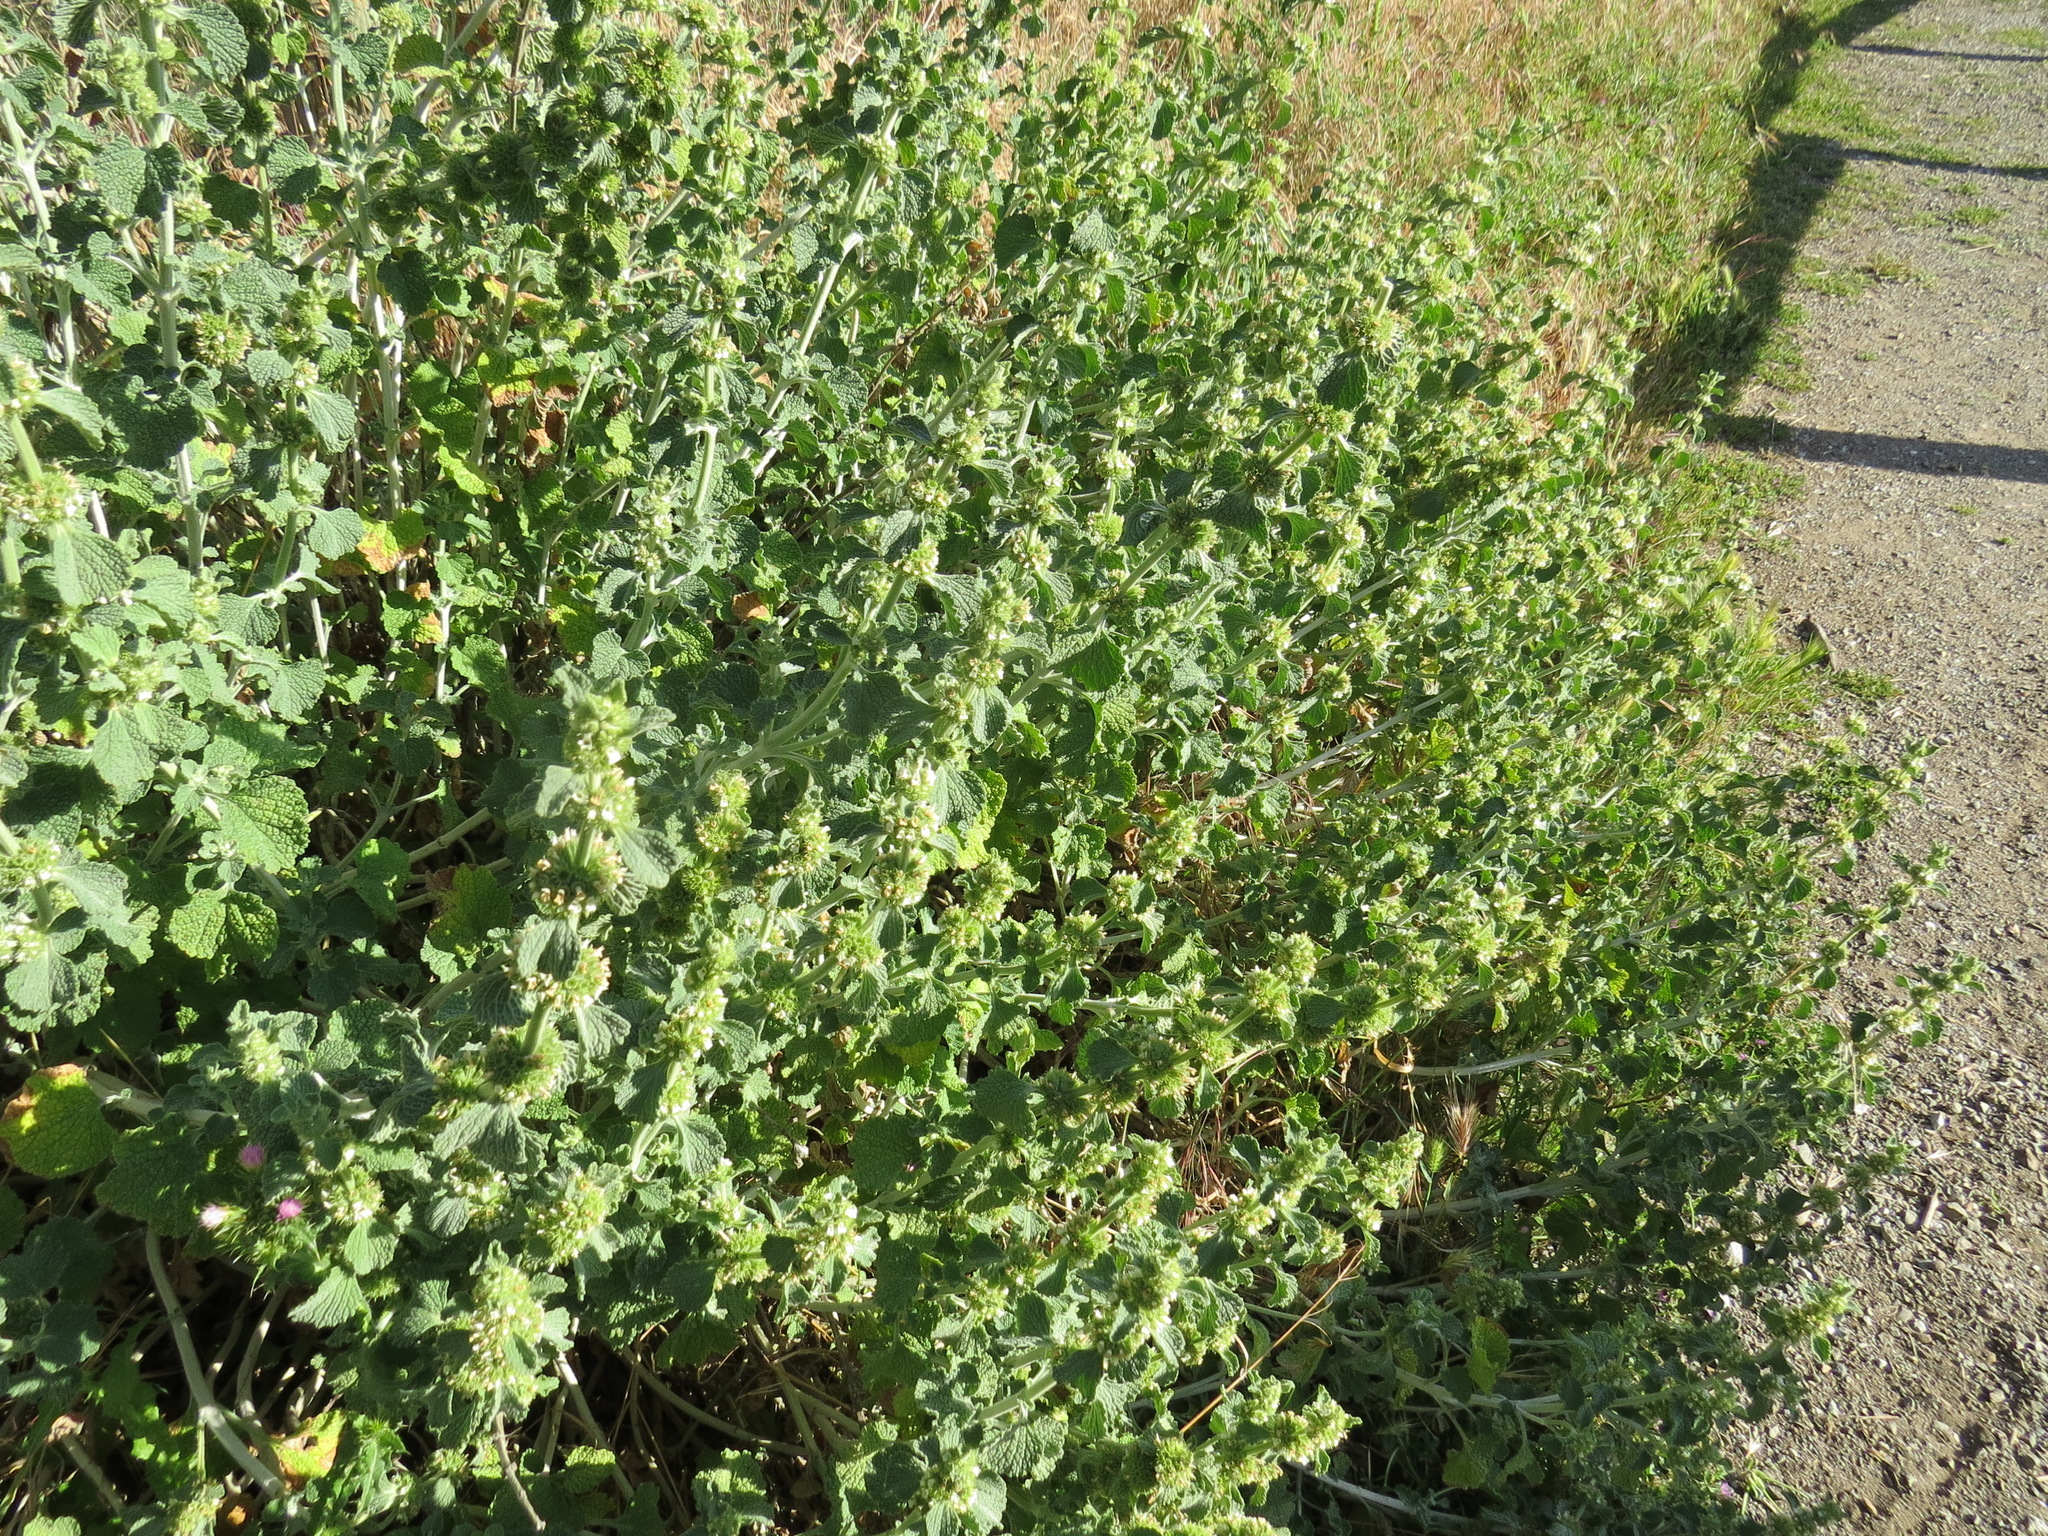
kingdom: Plantae
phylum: Tracheophyta
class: Magnoliopsida
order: Lamiales
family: Lamiaceae
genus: Marrubium
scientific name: Marrubium vulgare
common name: Horehound
